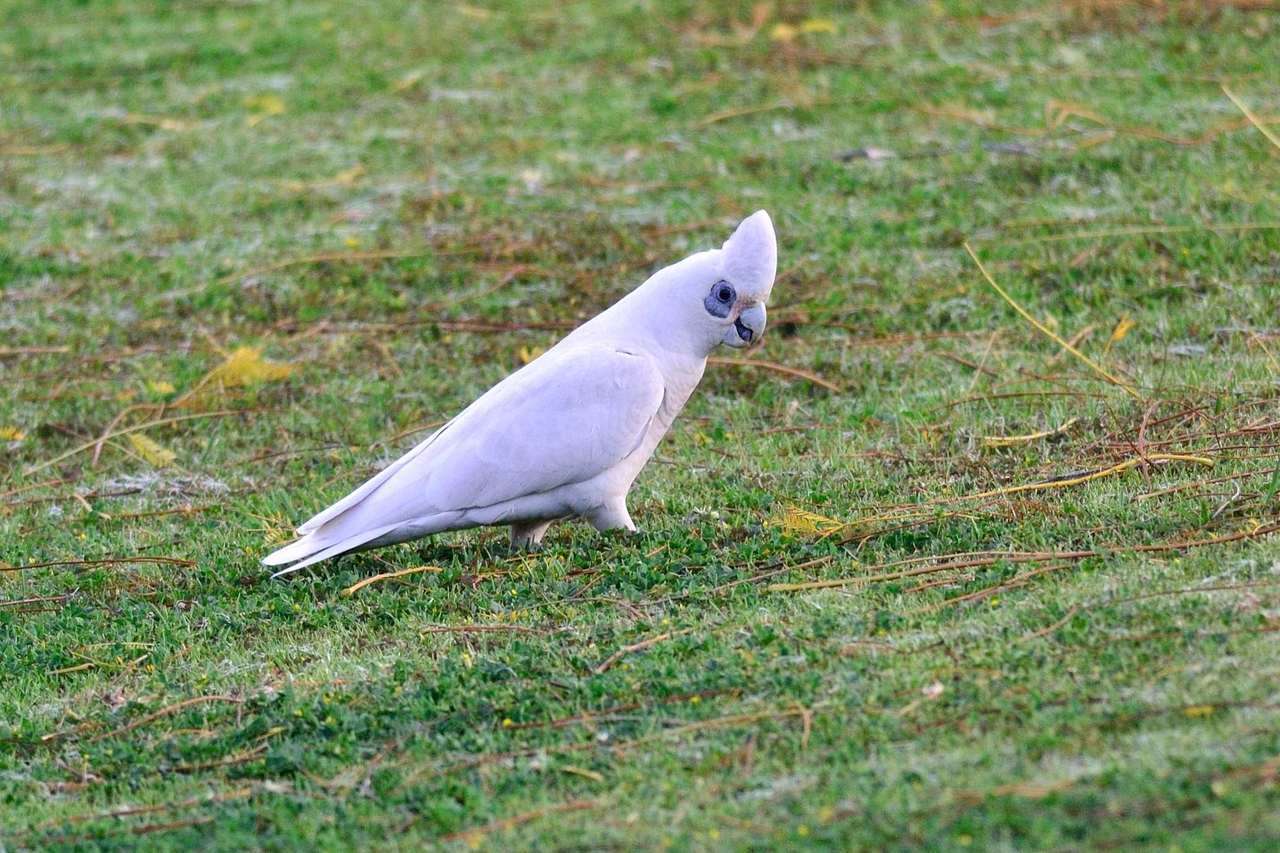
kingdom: Animalia
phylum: Chordata
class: Aves
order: Psittaciformes
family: Psittacidae
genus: Cacatua
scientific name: Cacatua sanguinea
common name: Little corella
